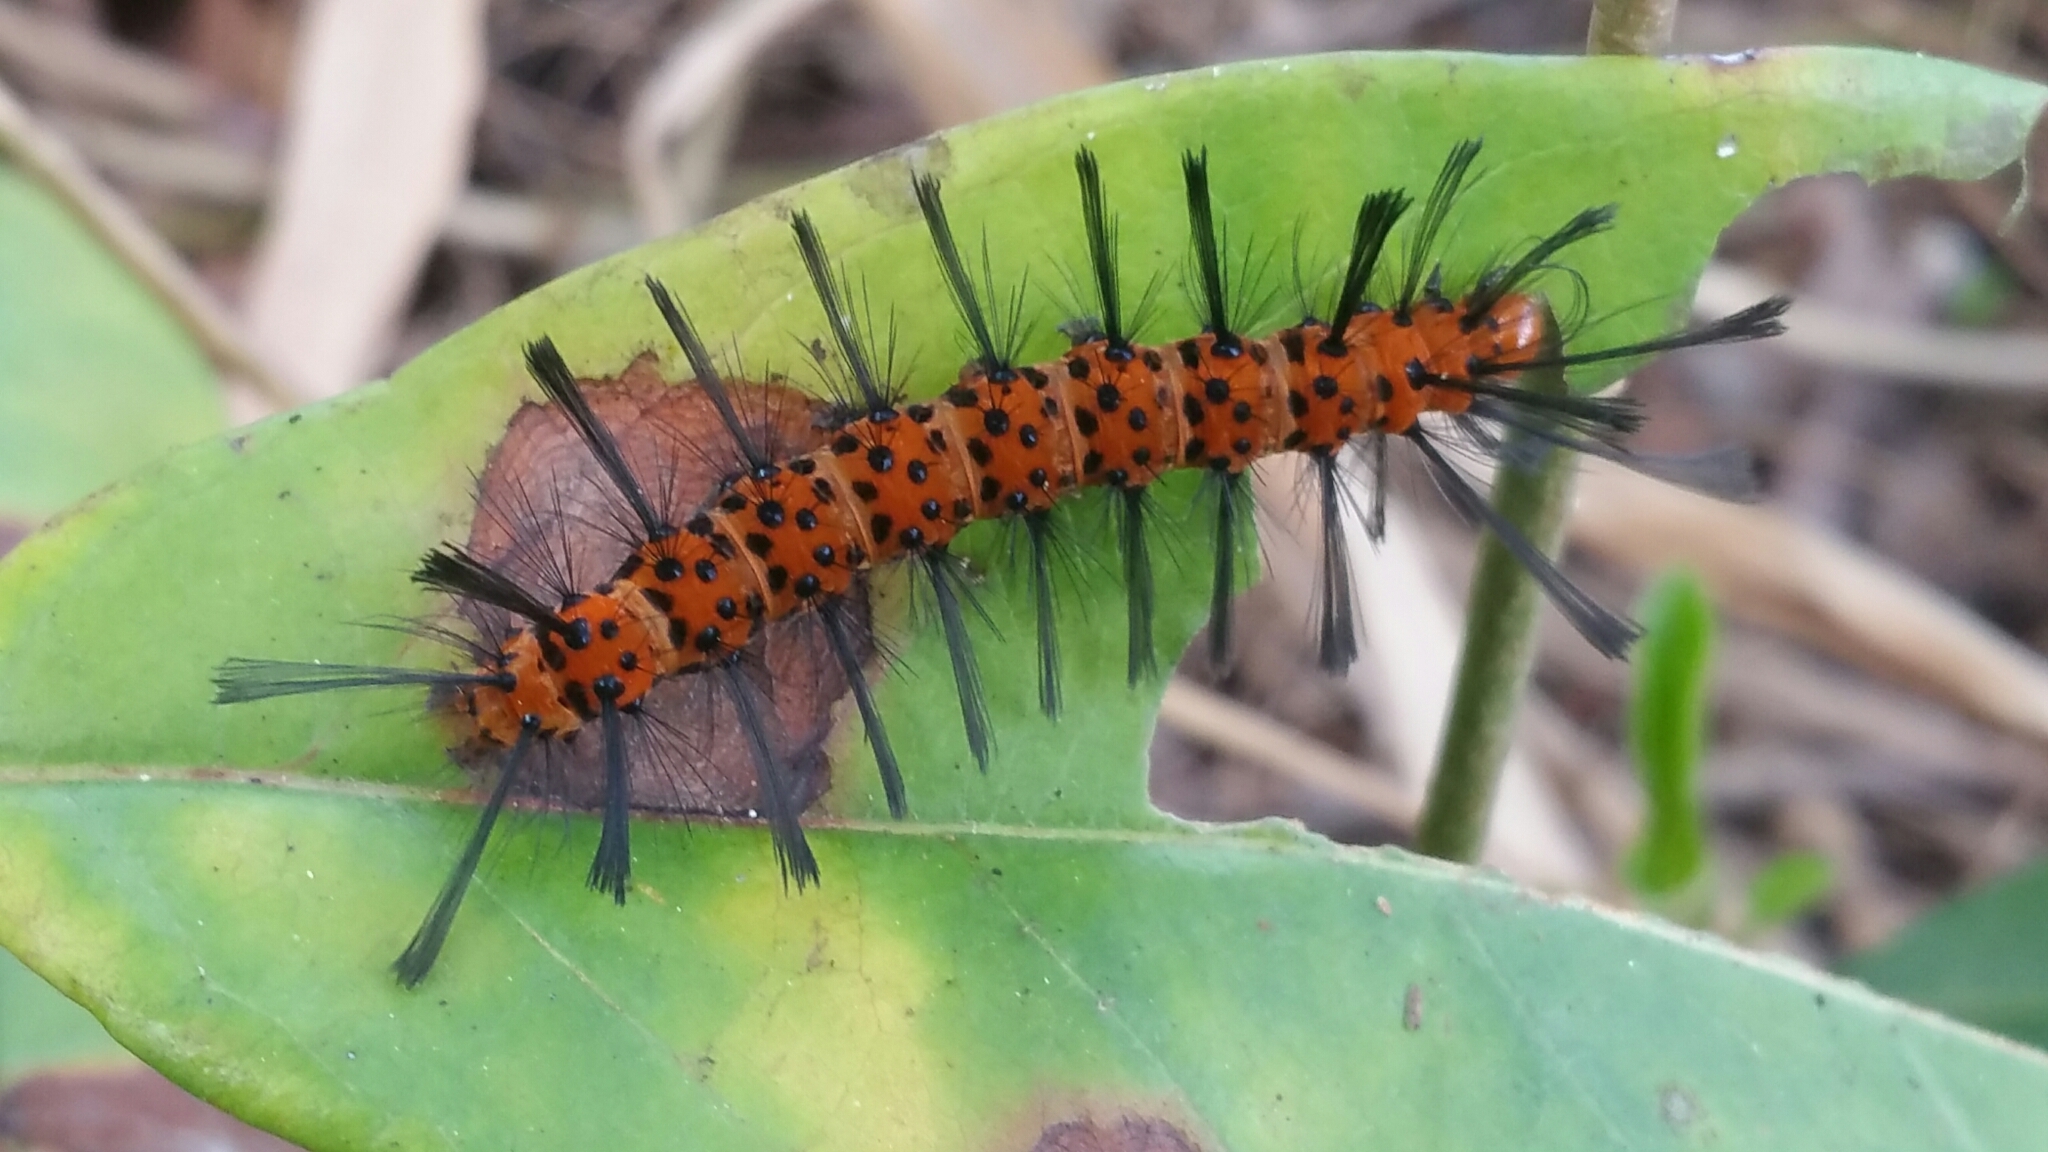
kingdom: Animalia
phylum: Arthropoda
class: Insecta
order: Lepidoptera
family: Erebidae
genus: Syntomeida
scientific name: Syntomeida epilais
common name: Polka-dot wasp moth
